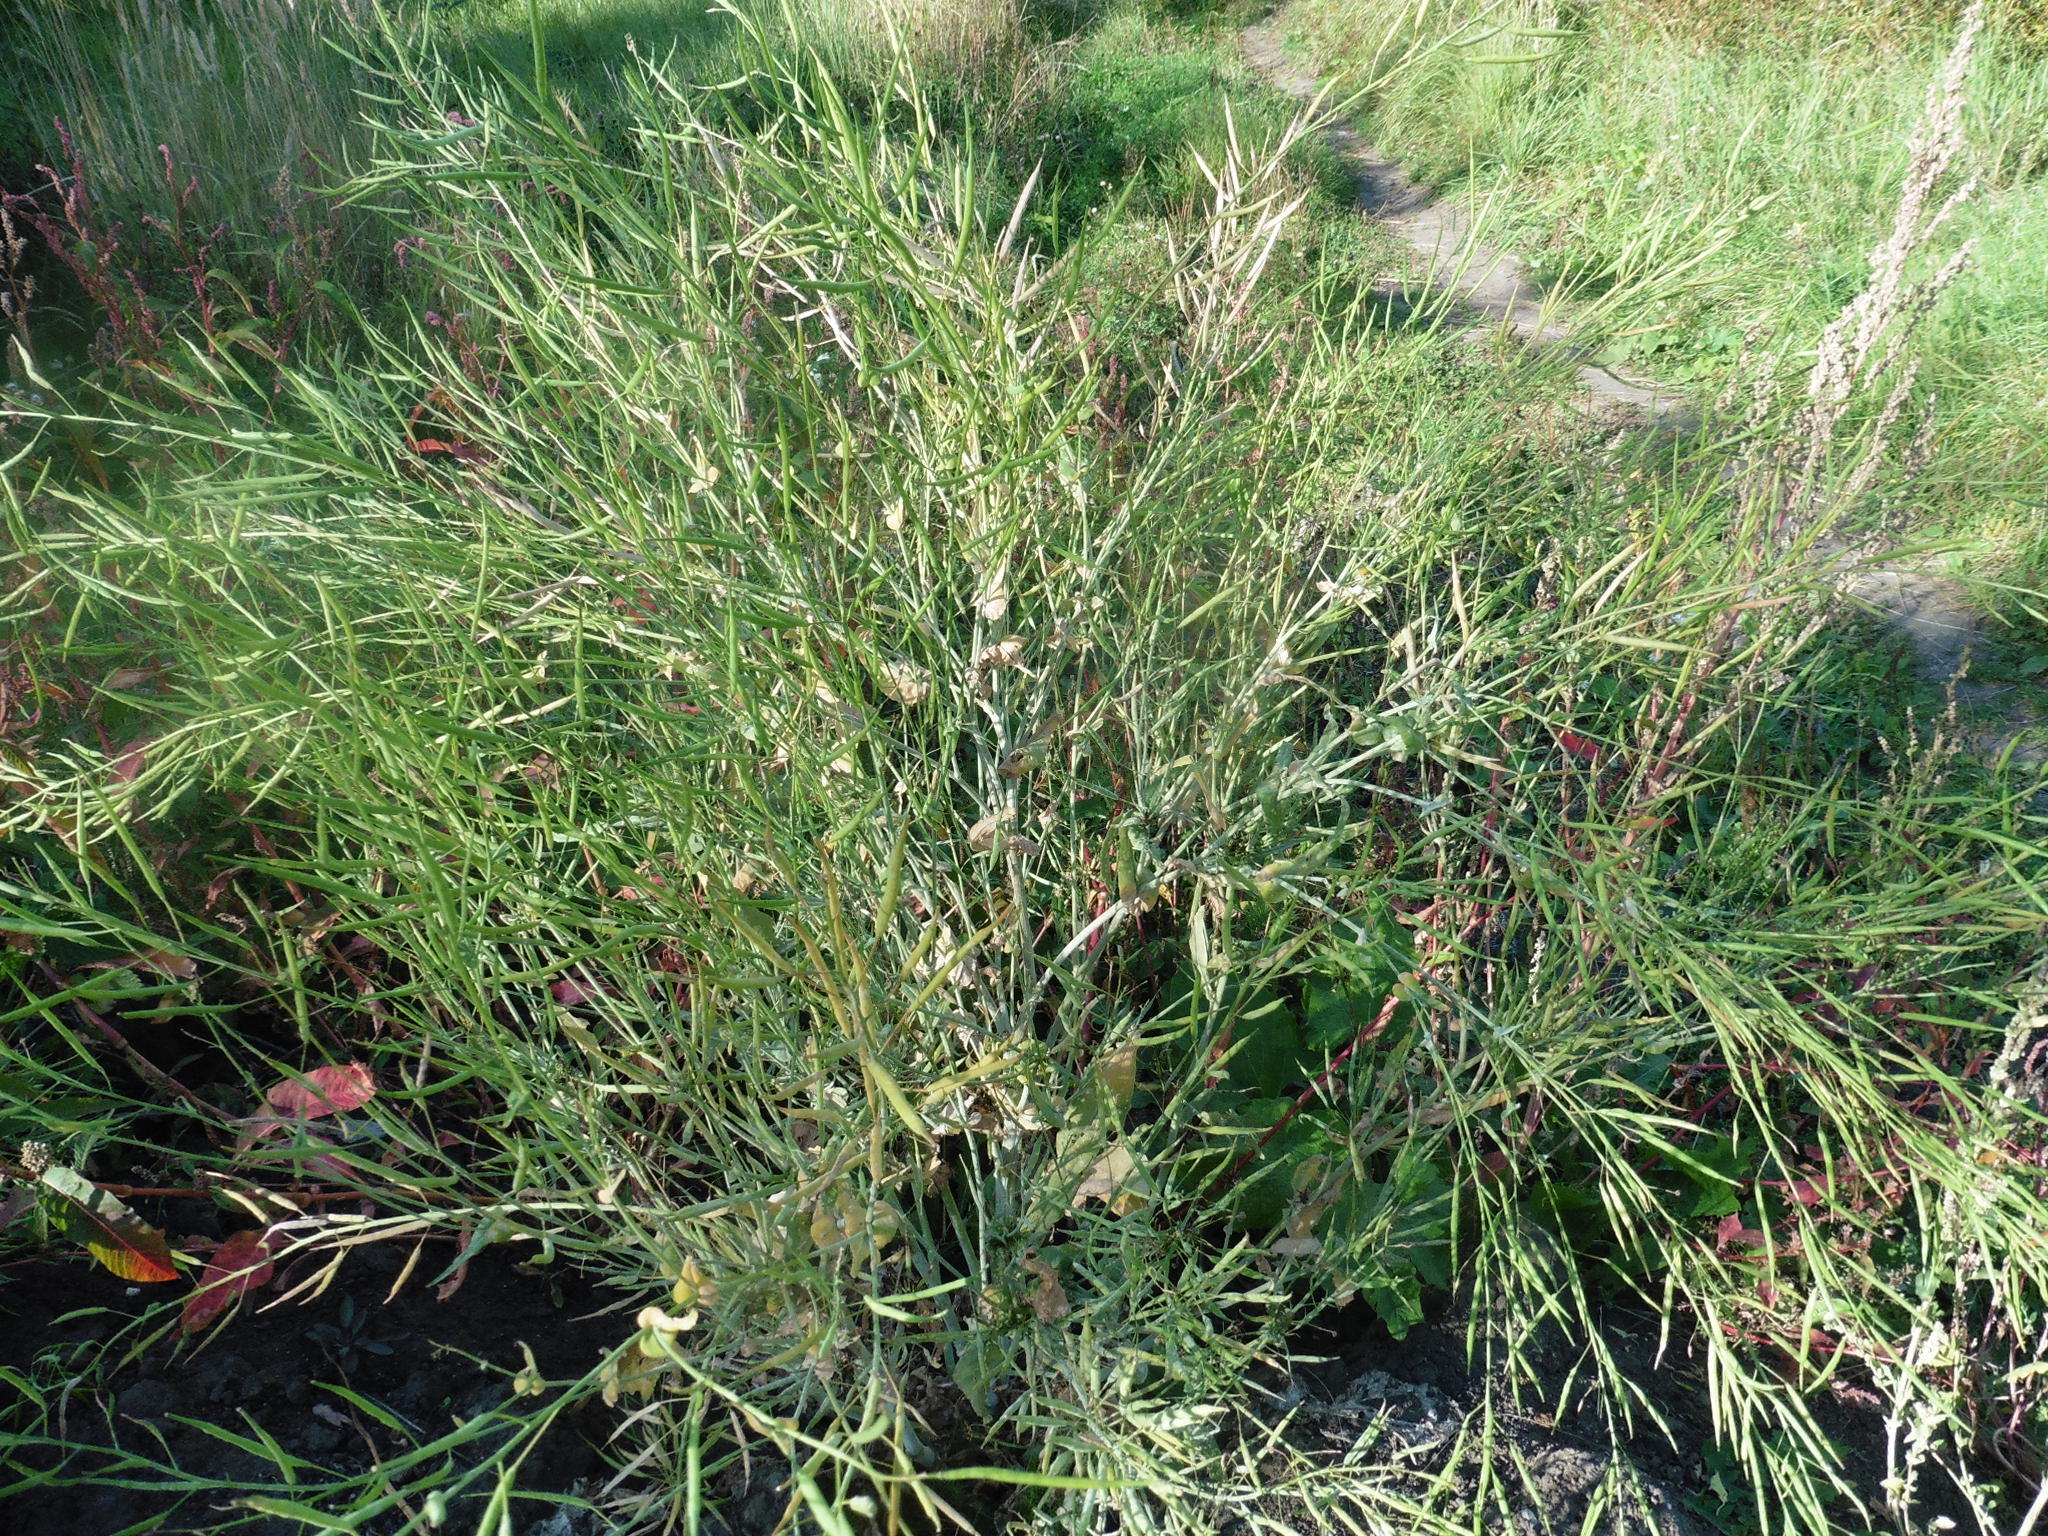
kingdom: Plantae
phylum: Tracheophyta
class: Magnoliopsida
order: Brassicales
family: Brassicaceae
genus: Brassica
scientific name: Brassica napus
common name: Rape
